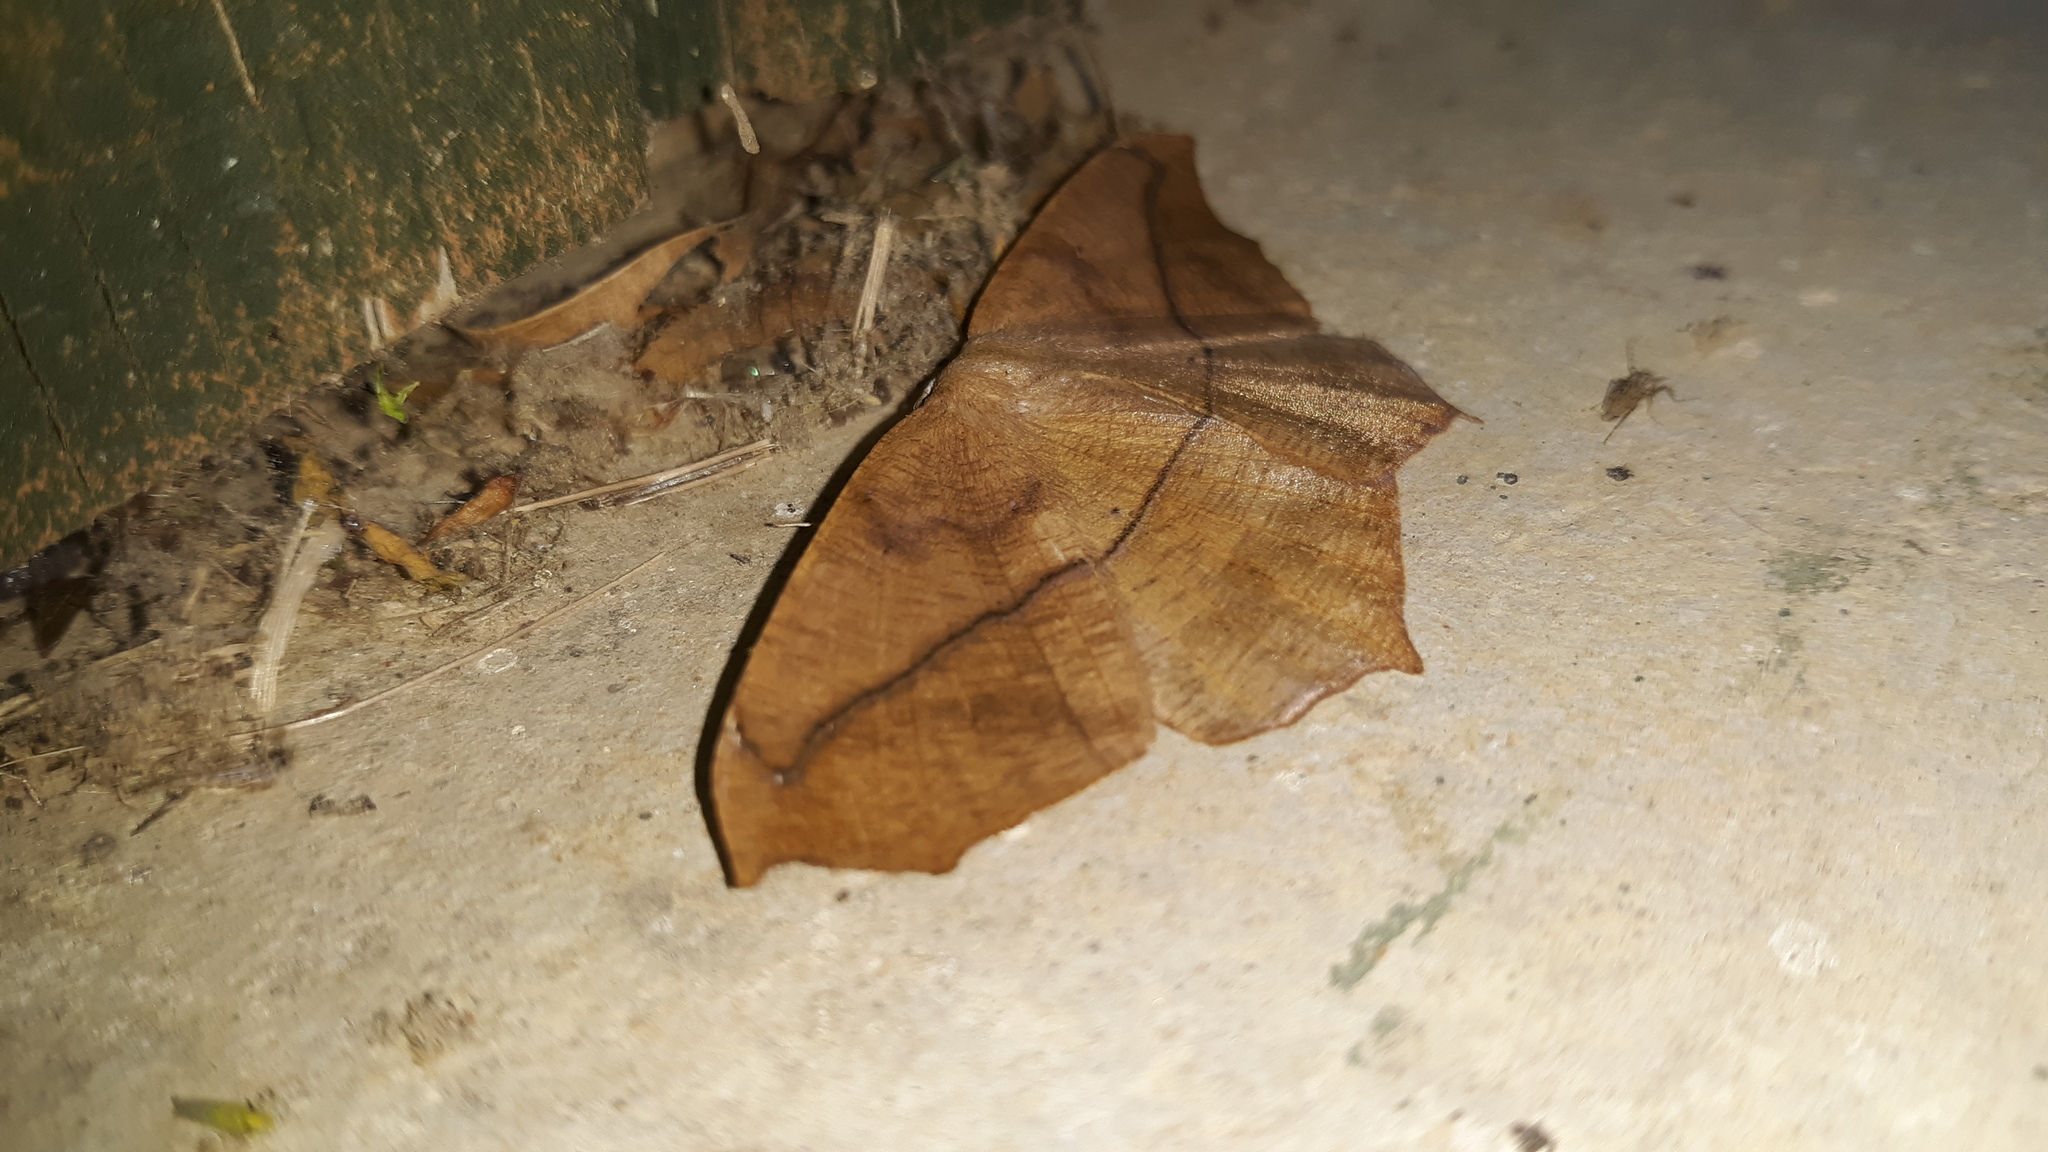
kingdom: Animalia
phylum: Arthropoda
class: Insecta
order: Lepidoptera
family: Geometridae
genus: Prochoerodes
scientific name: Prochoerodes lineola
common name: Large maple spanworm
